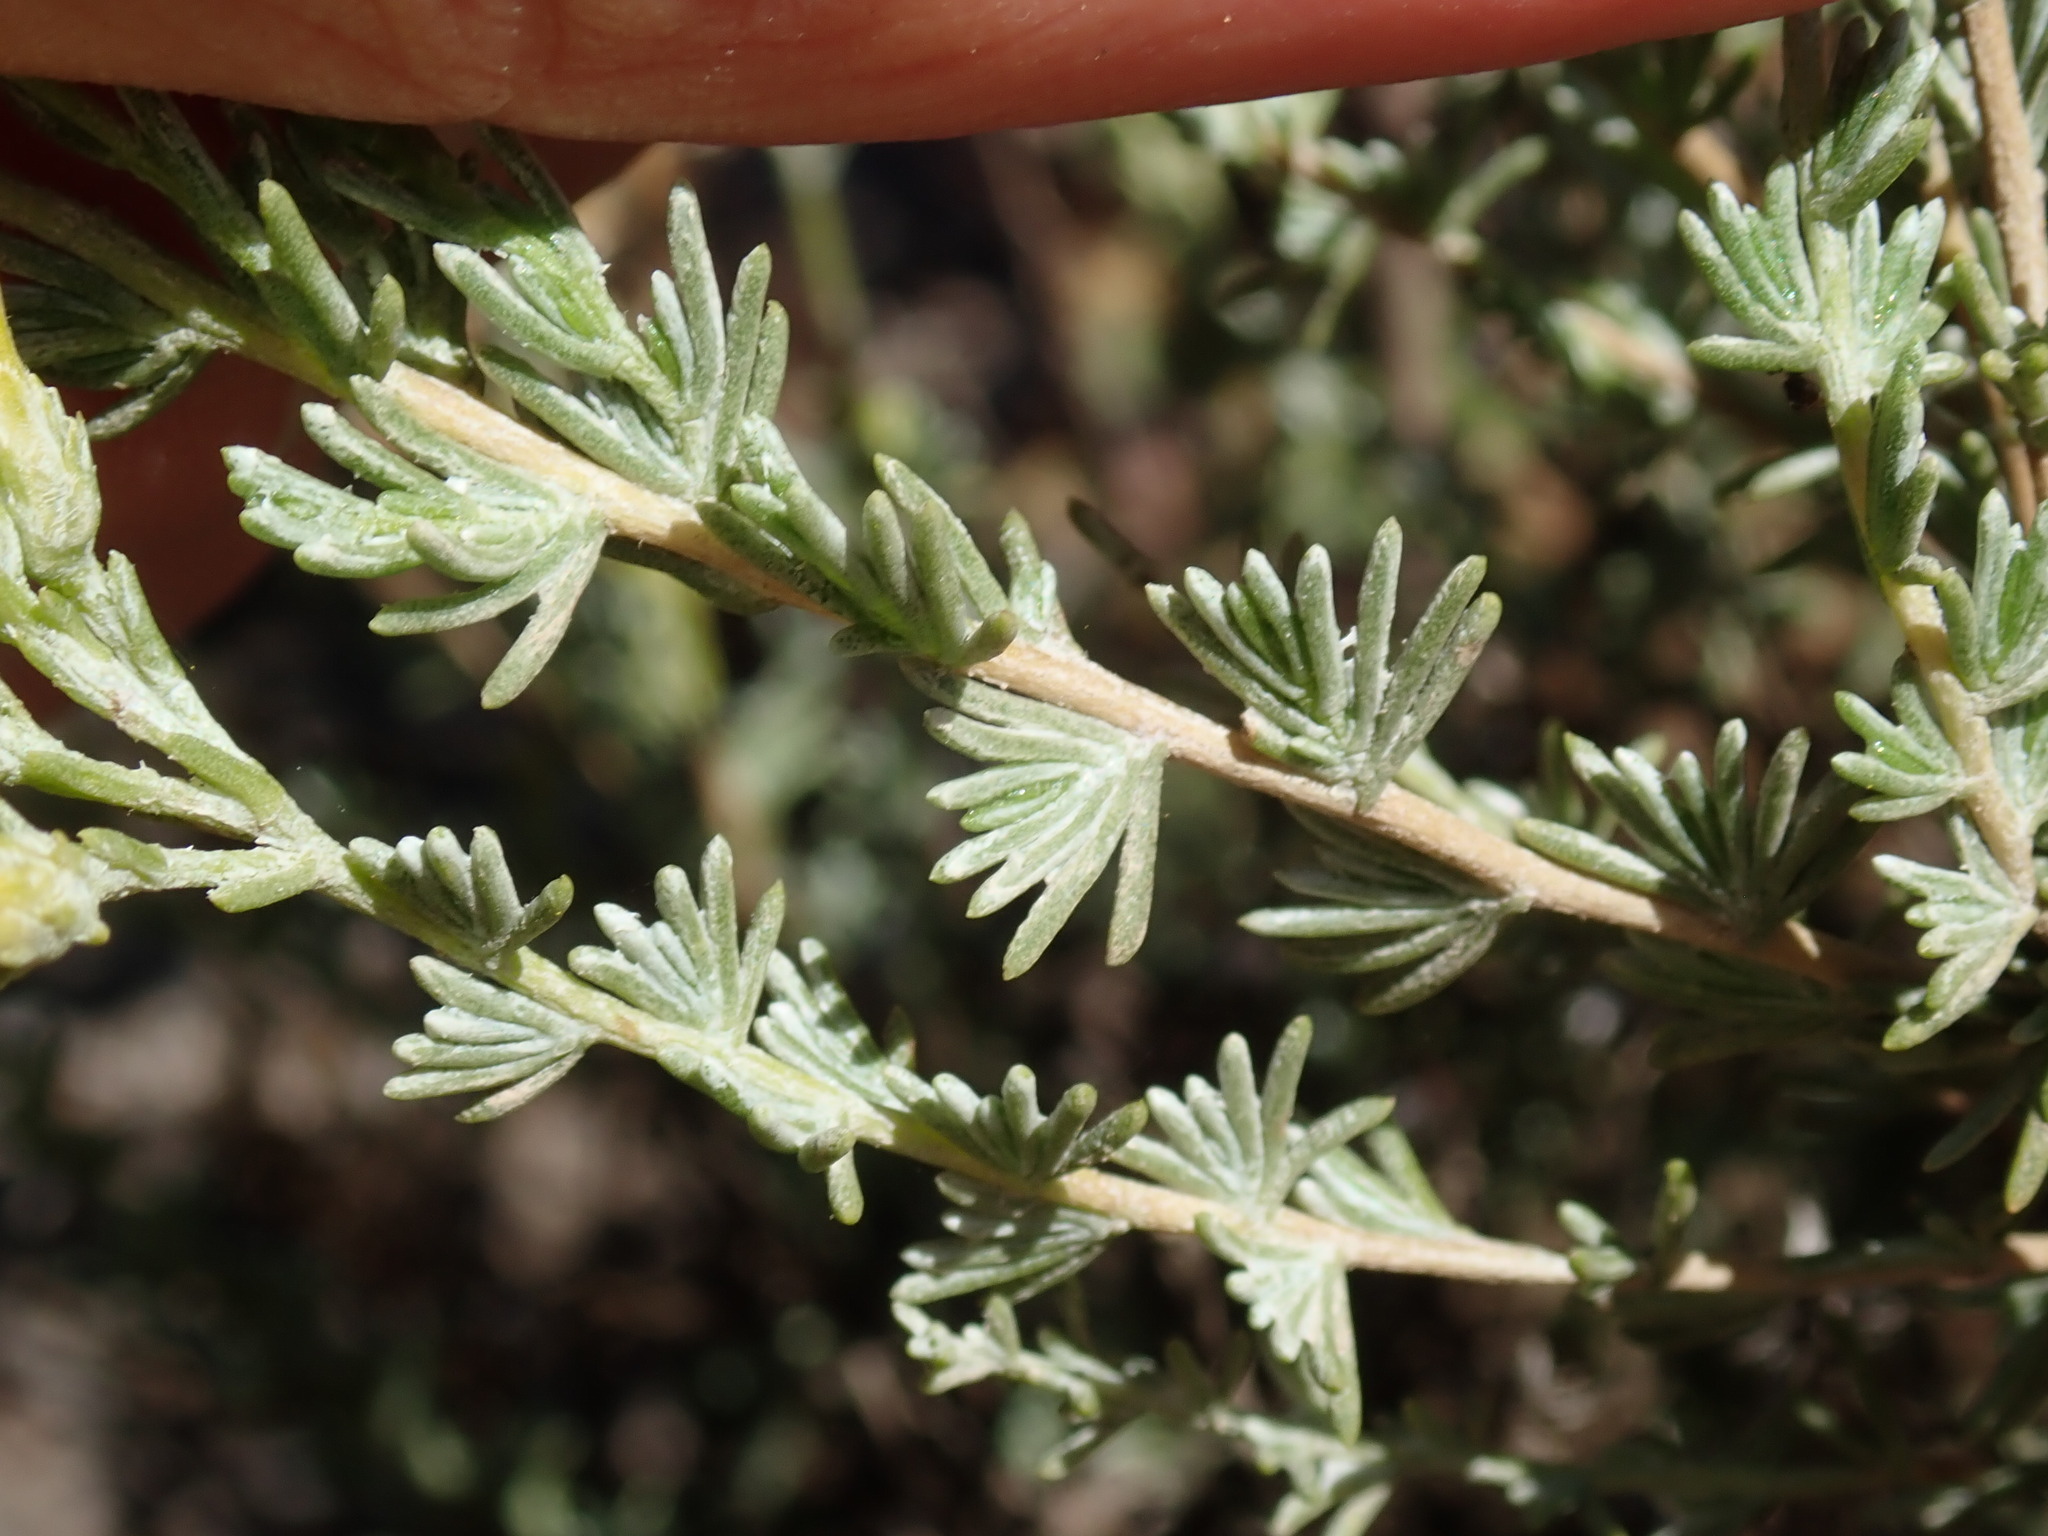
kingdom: Plantae
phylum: Tracheophyta
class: Magnoliopsida
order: Asterales
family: Asteraceae
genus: Ericameria
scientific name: Ericameria ericoides
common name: California goldenbush
